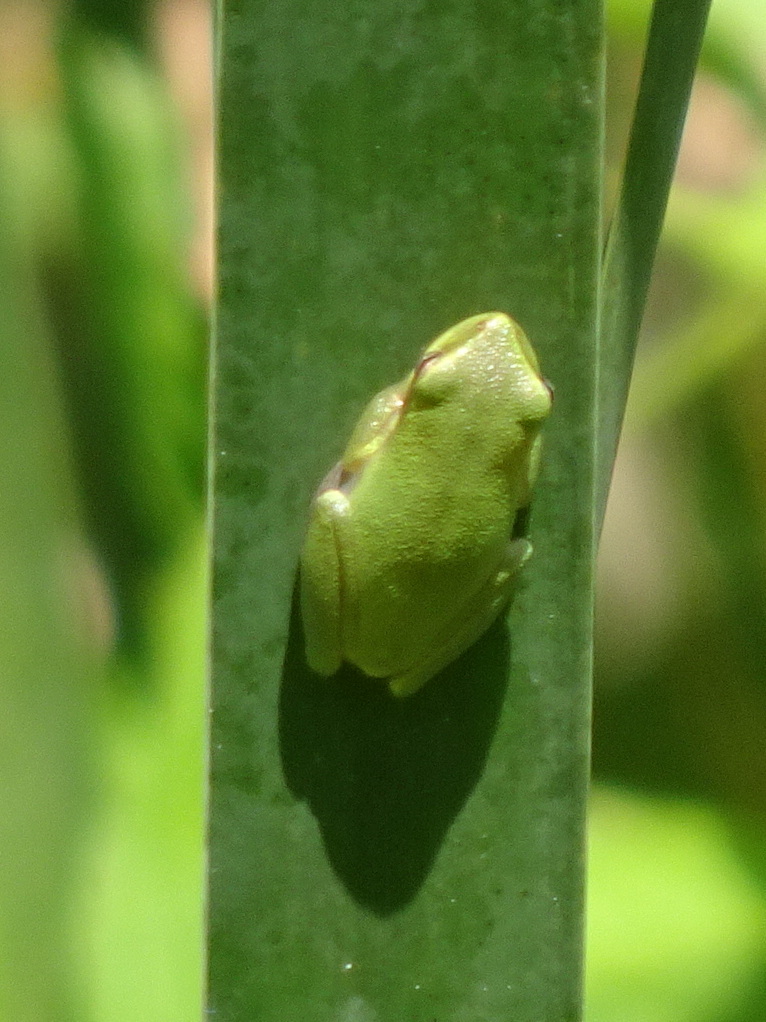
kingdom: Animalia
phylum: Chordata
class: Amphibia
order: Anura
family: Hylidae
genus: Dryophytes
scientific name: Dryophytes squirellus
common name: Squirrel treefrog
